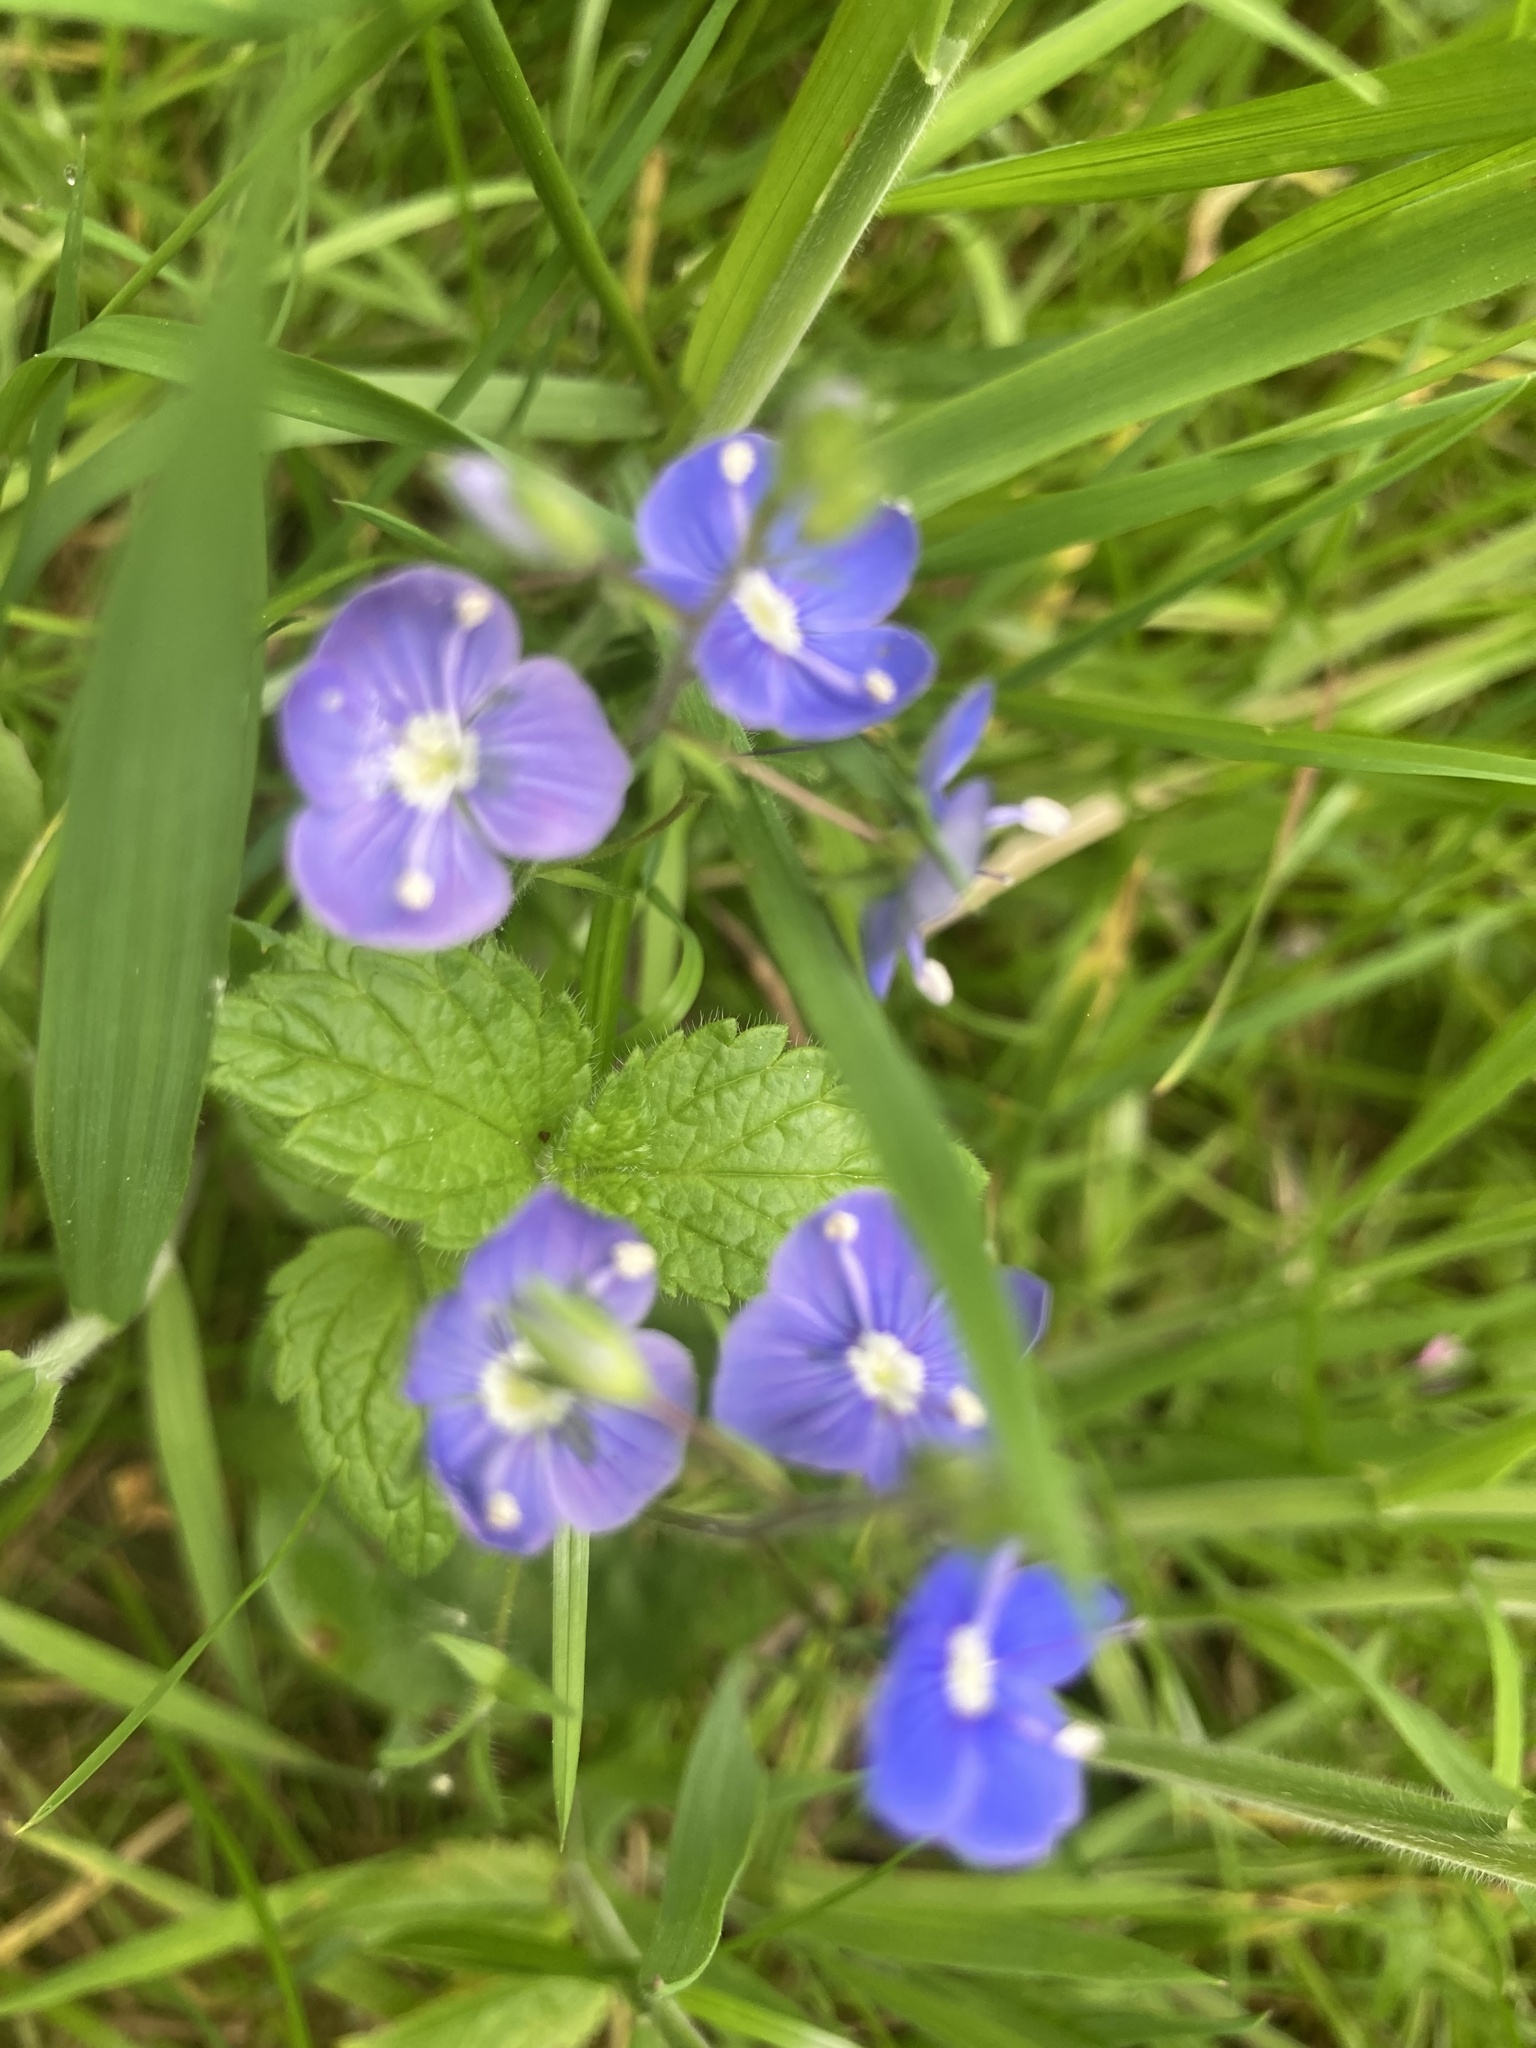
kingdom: Plantae
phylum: Tracheophyta
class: Magnoliopsida
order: Lamiales
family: Plantaginaceae
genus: Veronica
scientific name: Veronica chamaedrys
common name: Germander speedwell
